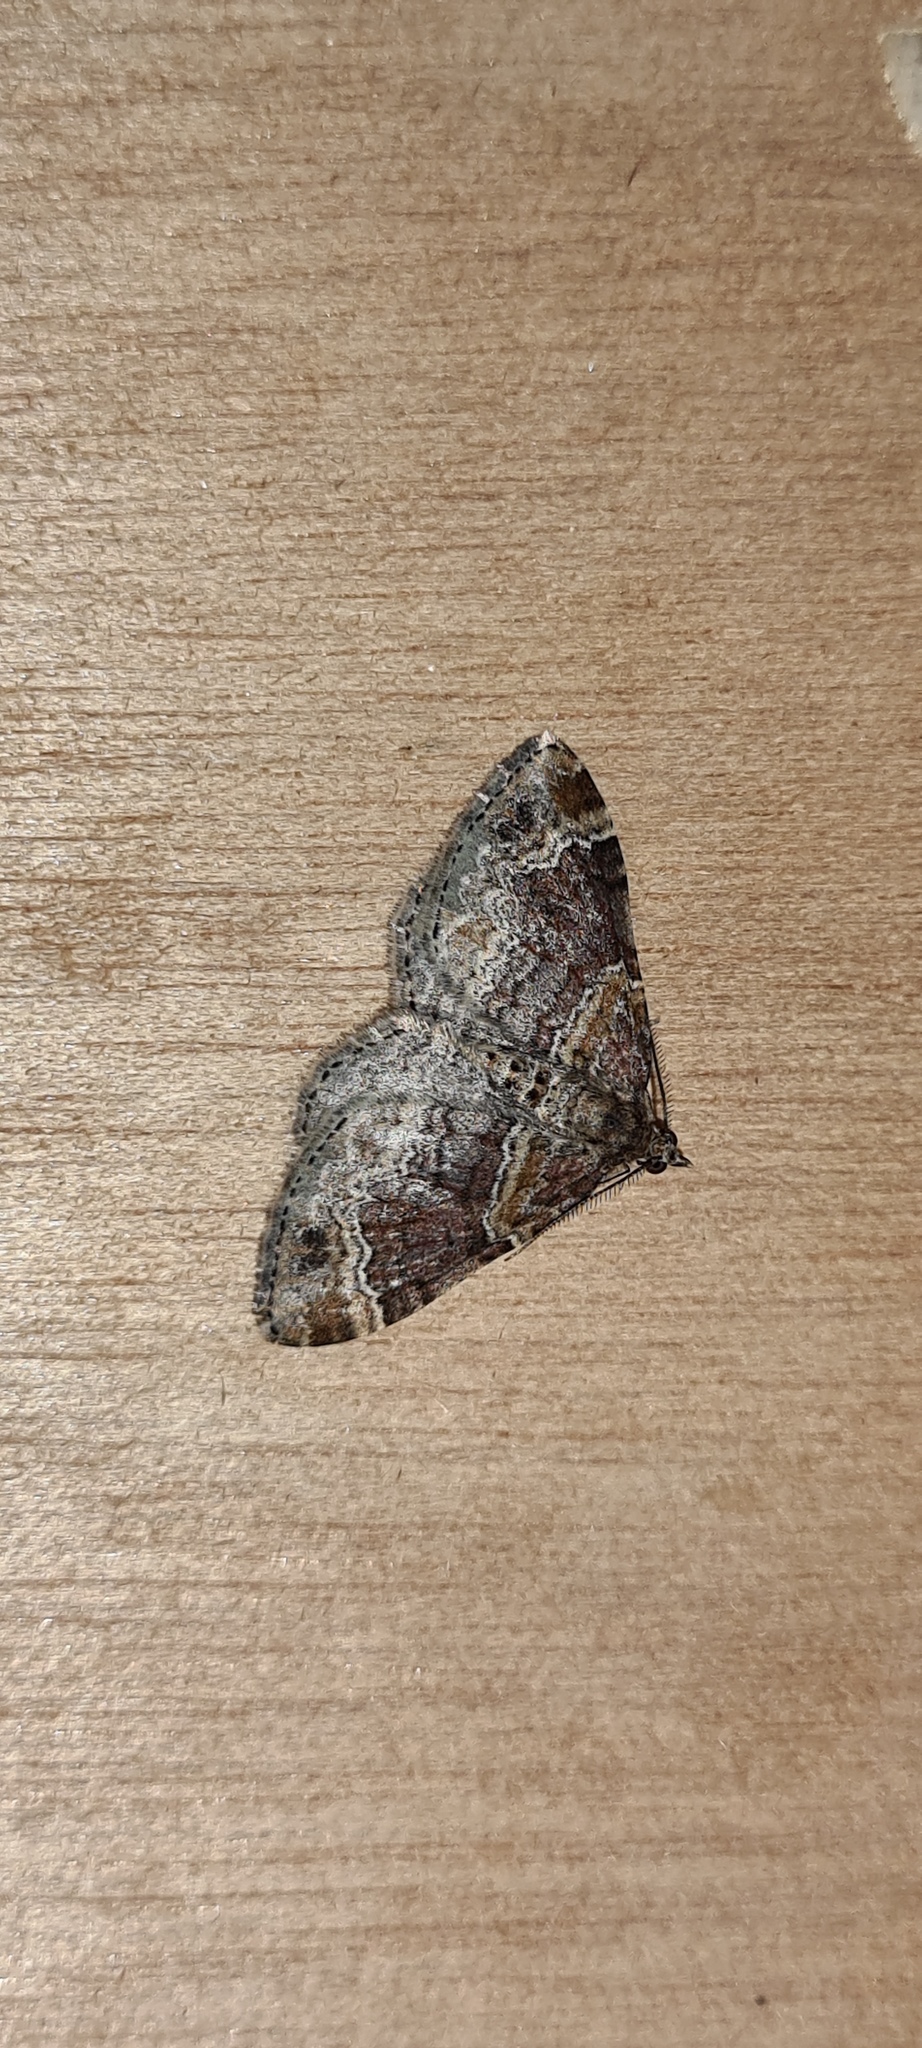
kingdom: Animalia
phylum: Arthropoda
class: Insecta
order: Lepidoptera
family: Geometridae
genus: Xanthorhoe
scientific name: Xanthorhoe spadicearia
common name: Red twin-spot carpet
